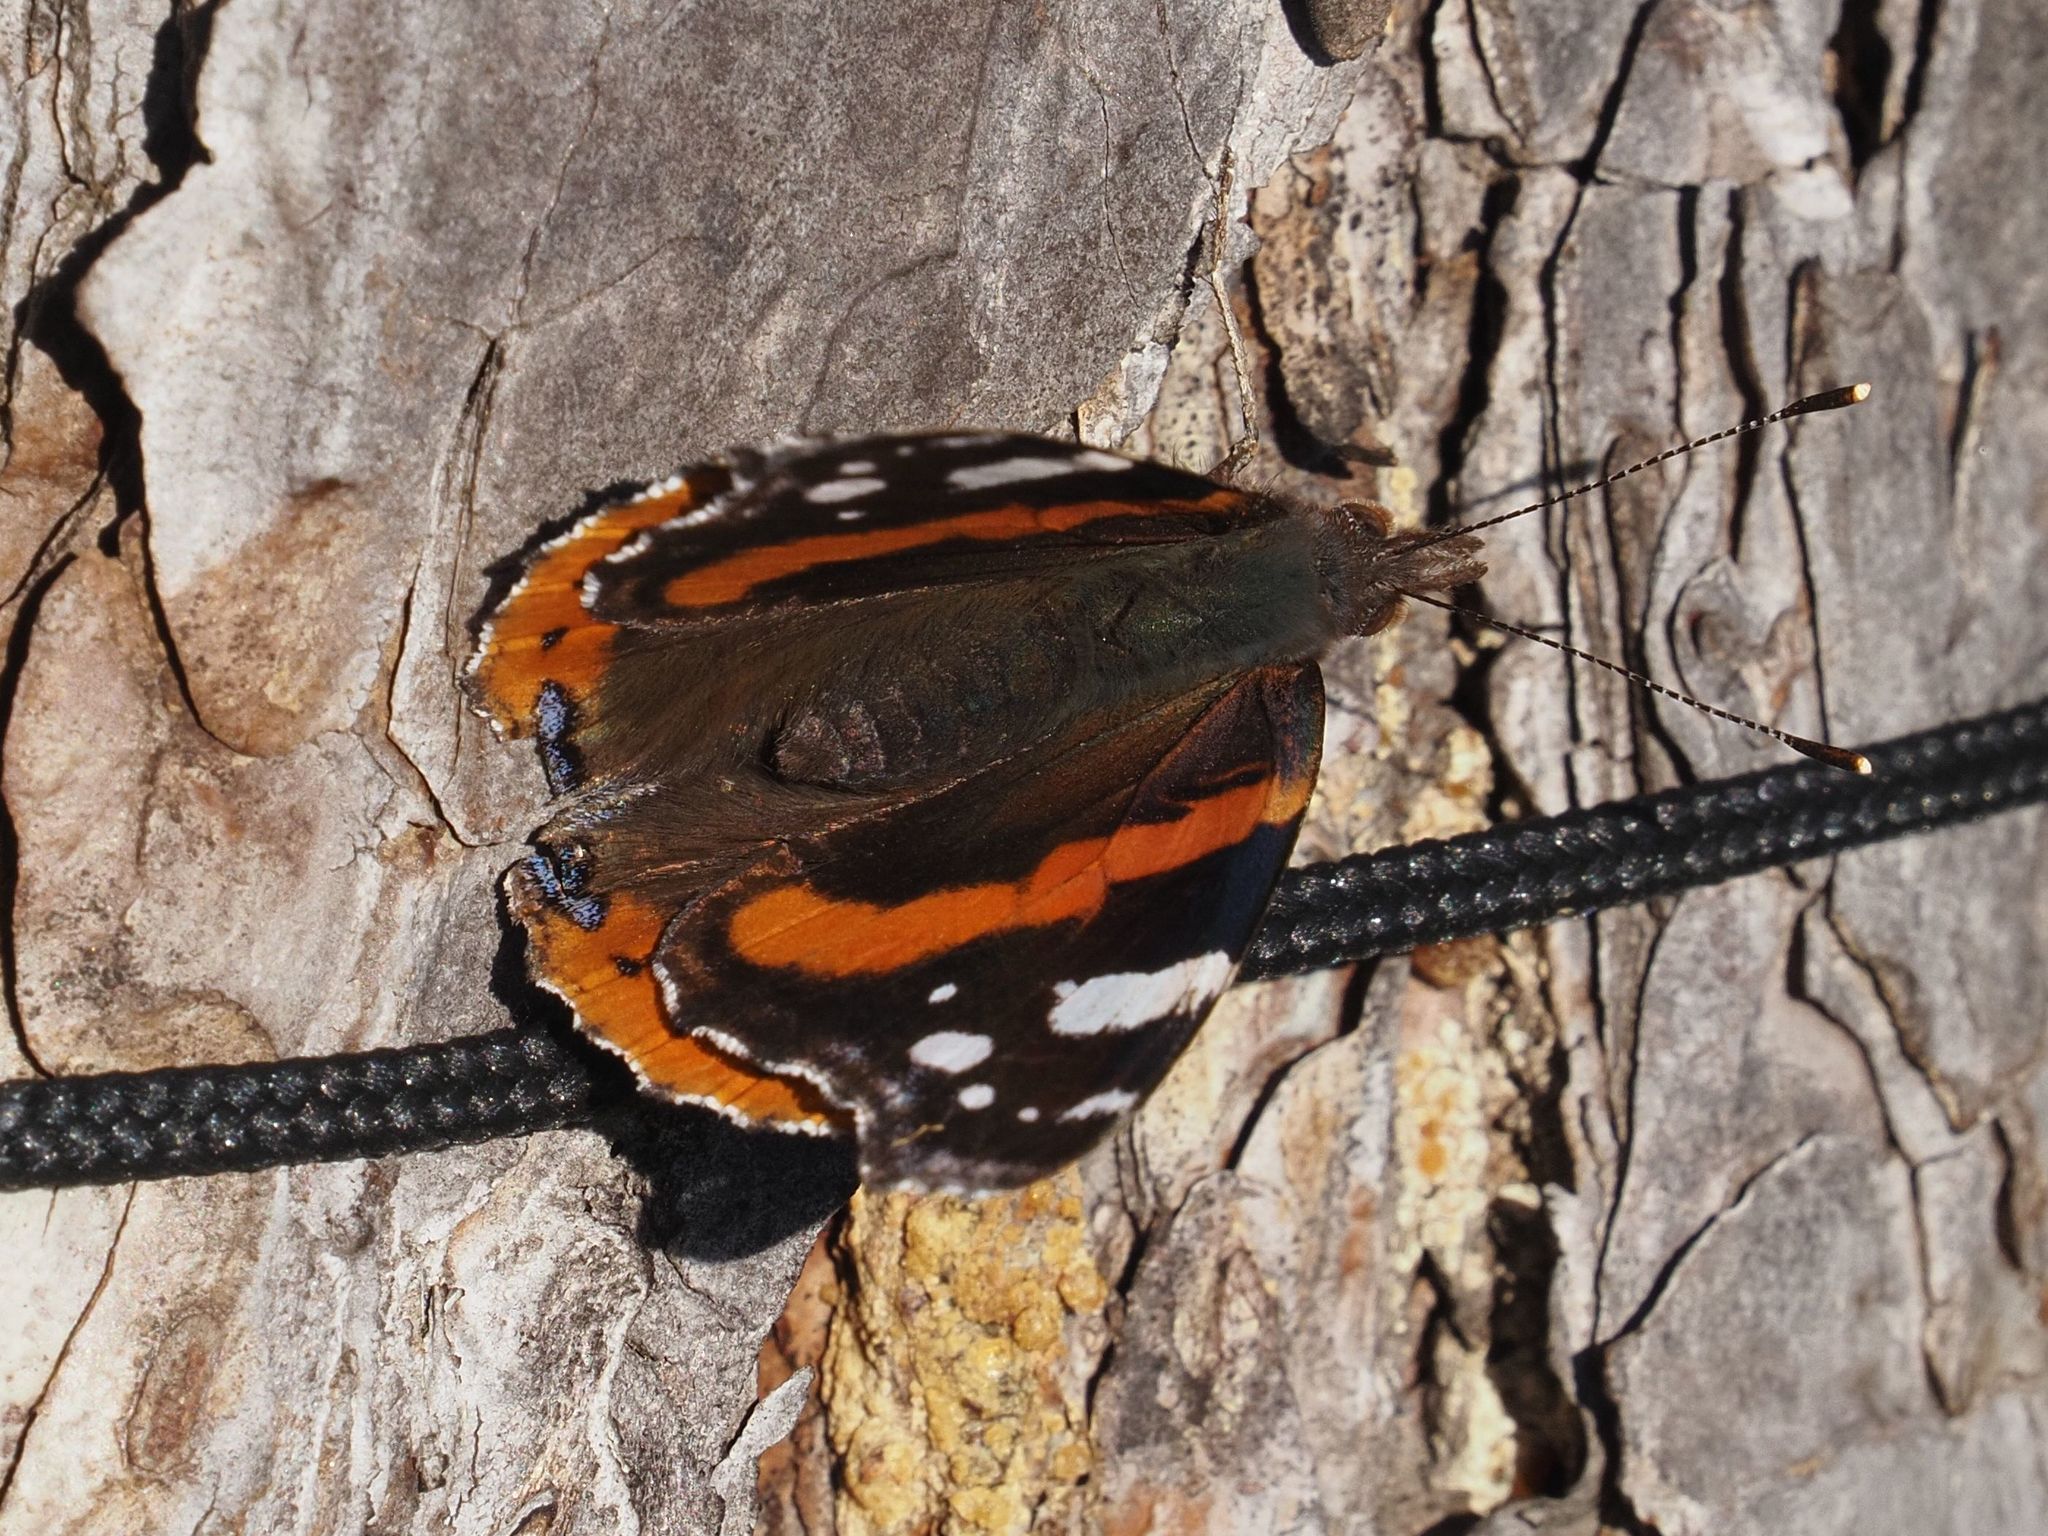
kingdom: Animalia
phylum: Arthropoda
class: Insecta
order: Lepidoptera
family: Nymphalidae
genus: Vanessa
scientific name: Vanessa atalanta
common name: Red admiral
